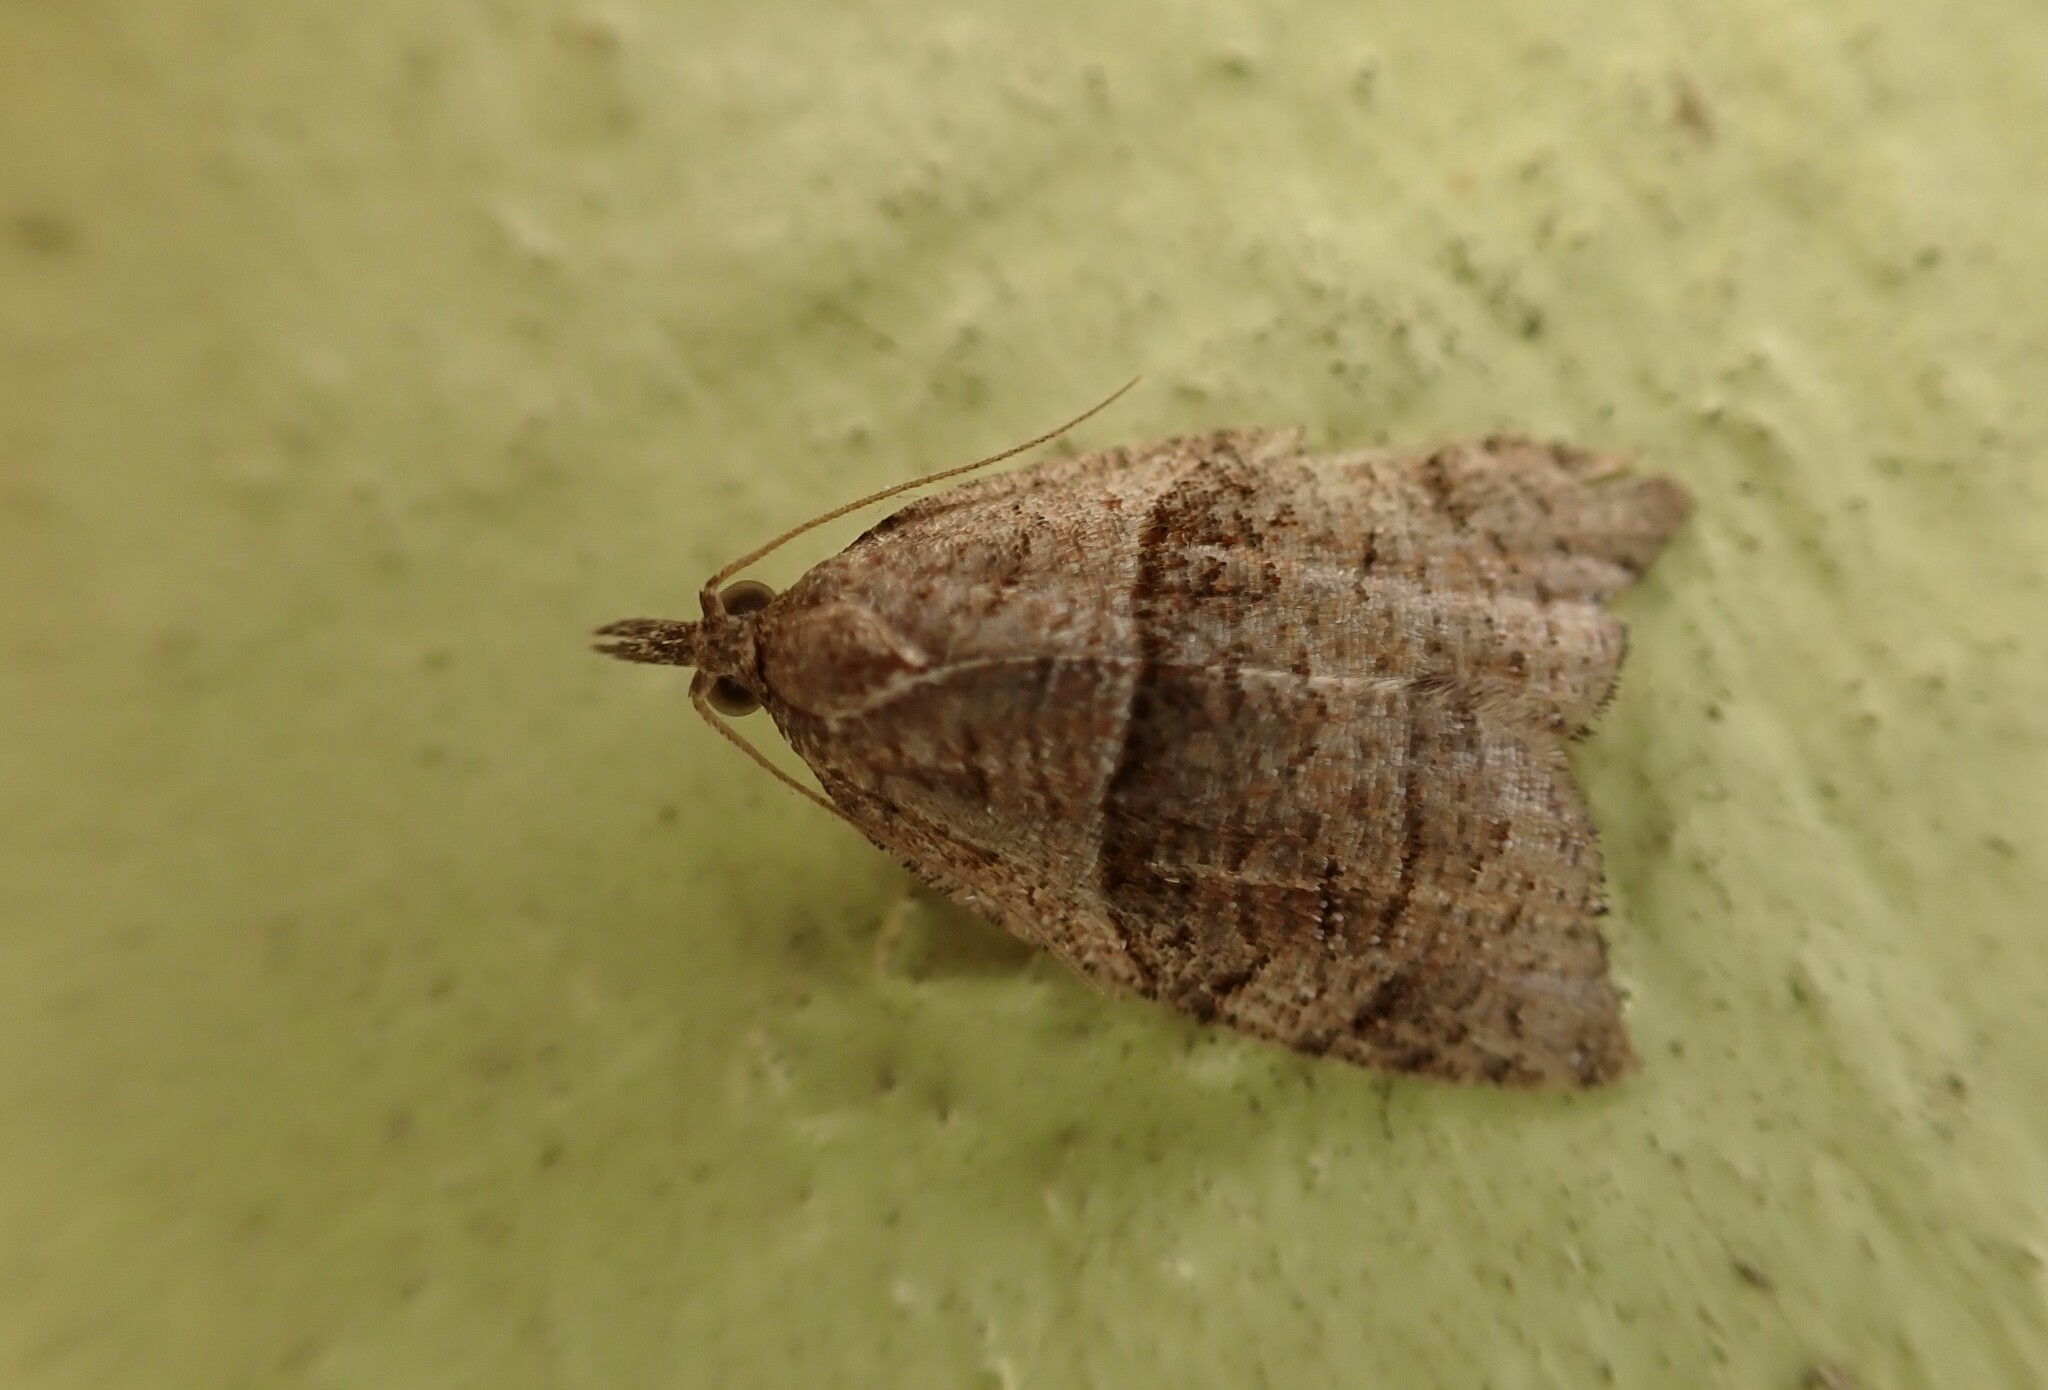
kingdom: Animalia
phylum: Arthropoda
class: Insecta
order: Lepidoptera
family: Tortricidae
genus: Cnephasia
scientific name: Cnephasia incertana
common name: Light grey tortrix
